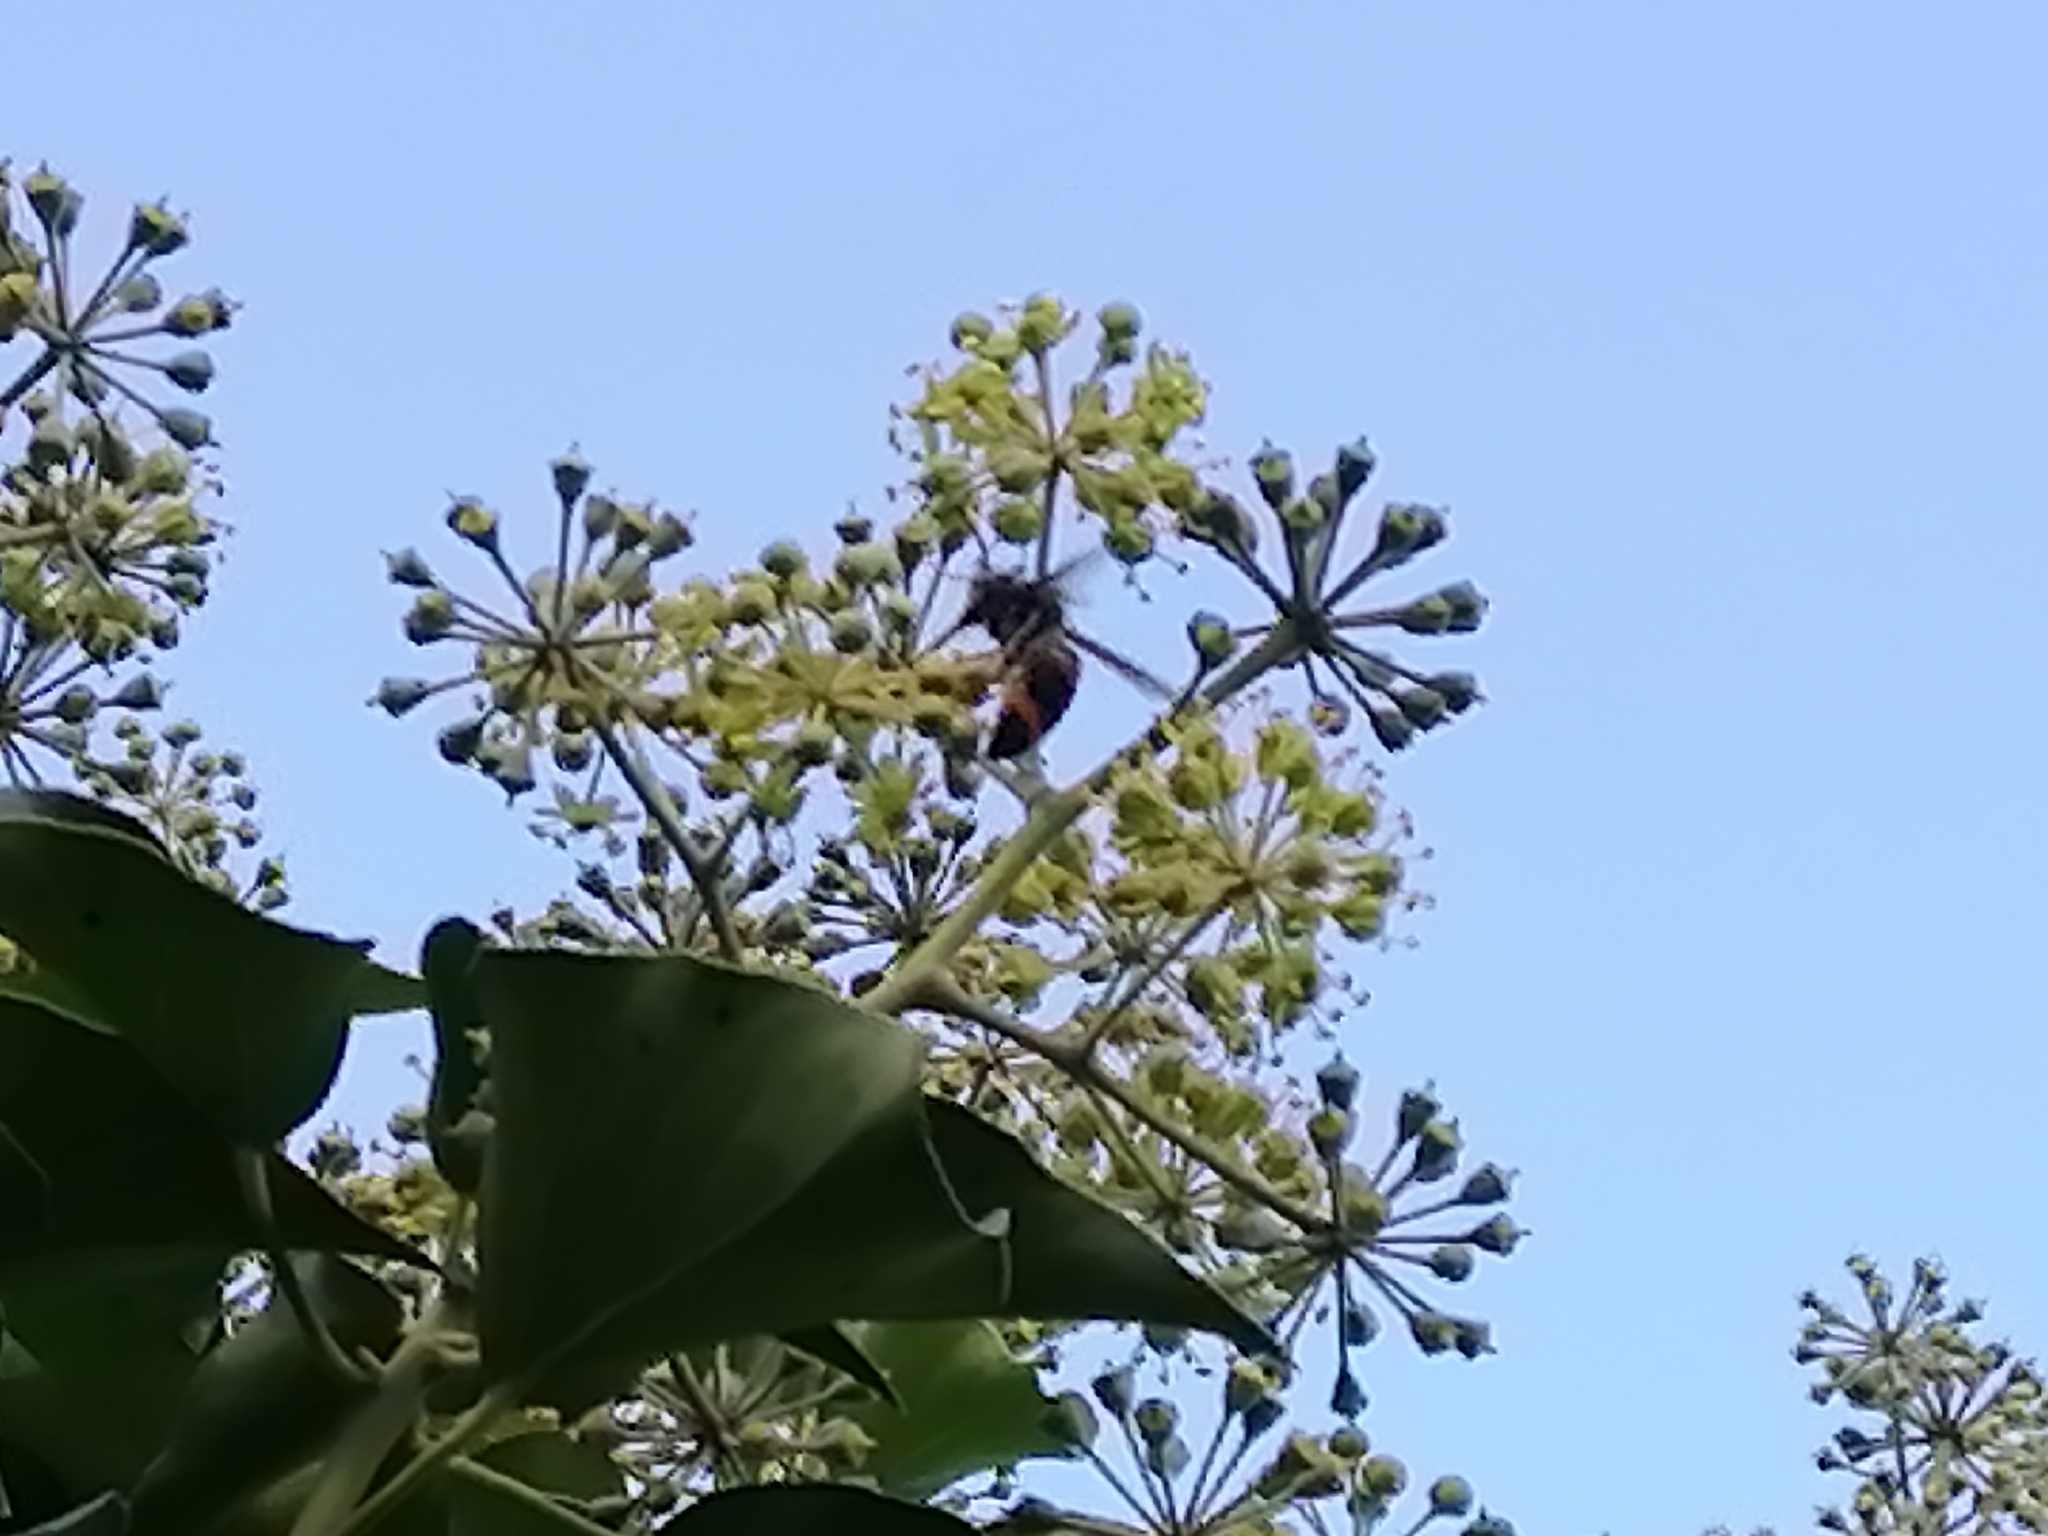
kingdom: Animalia
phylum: Arthropoda
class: Insecta
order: Hymenoptera
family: Vespidae
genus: Vespa
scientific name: Vespa velutina
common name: Asian hornet
